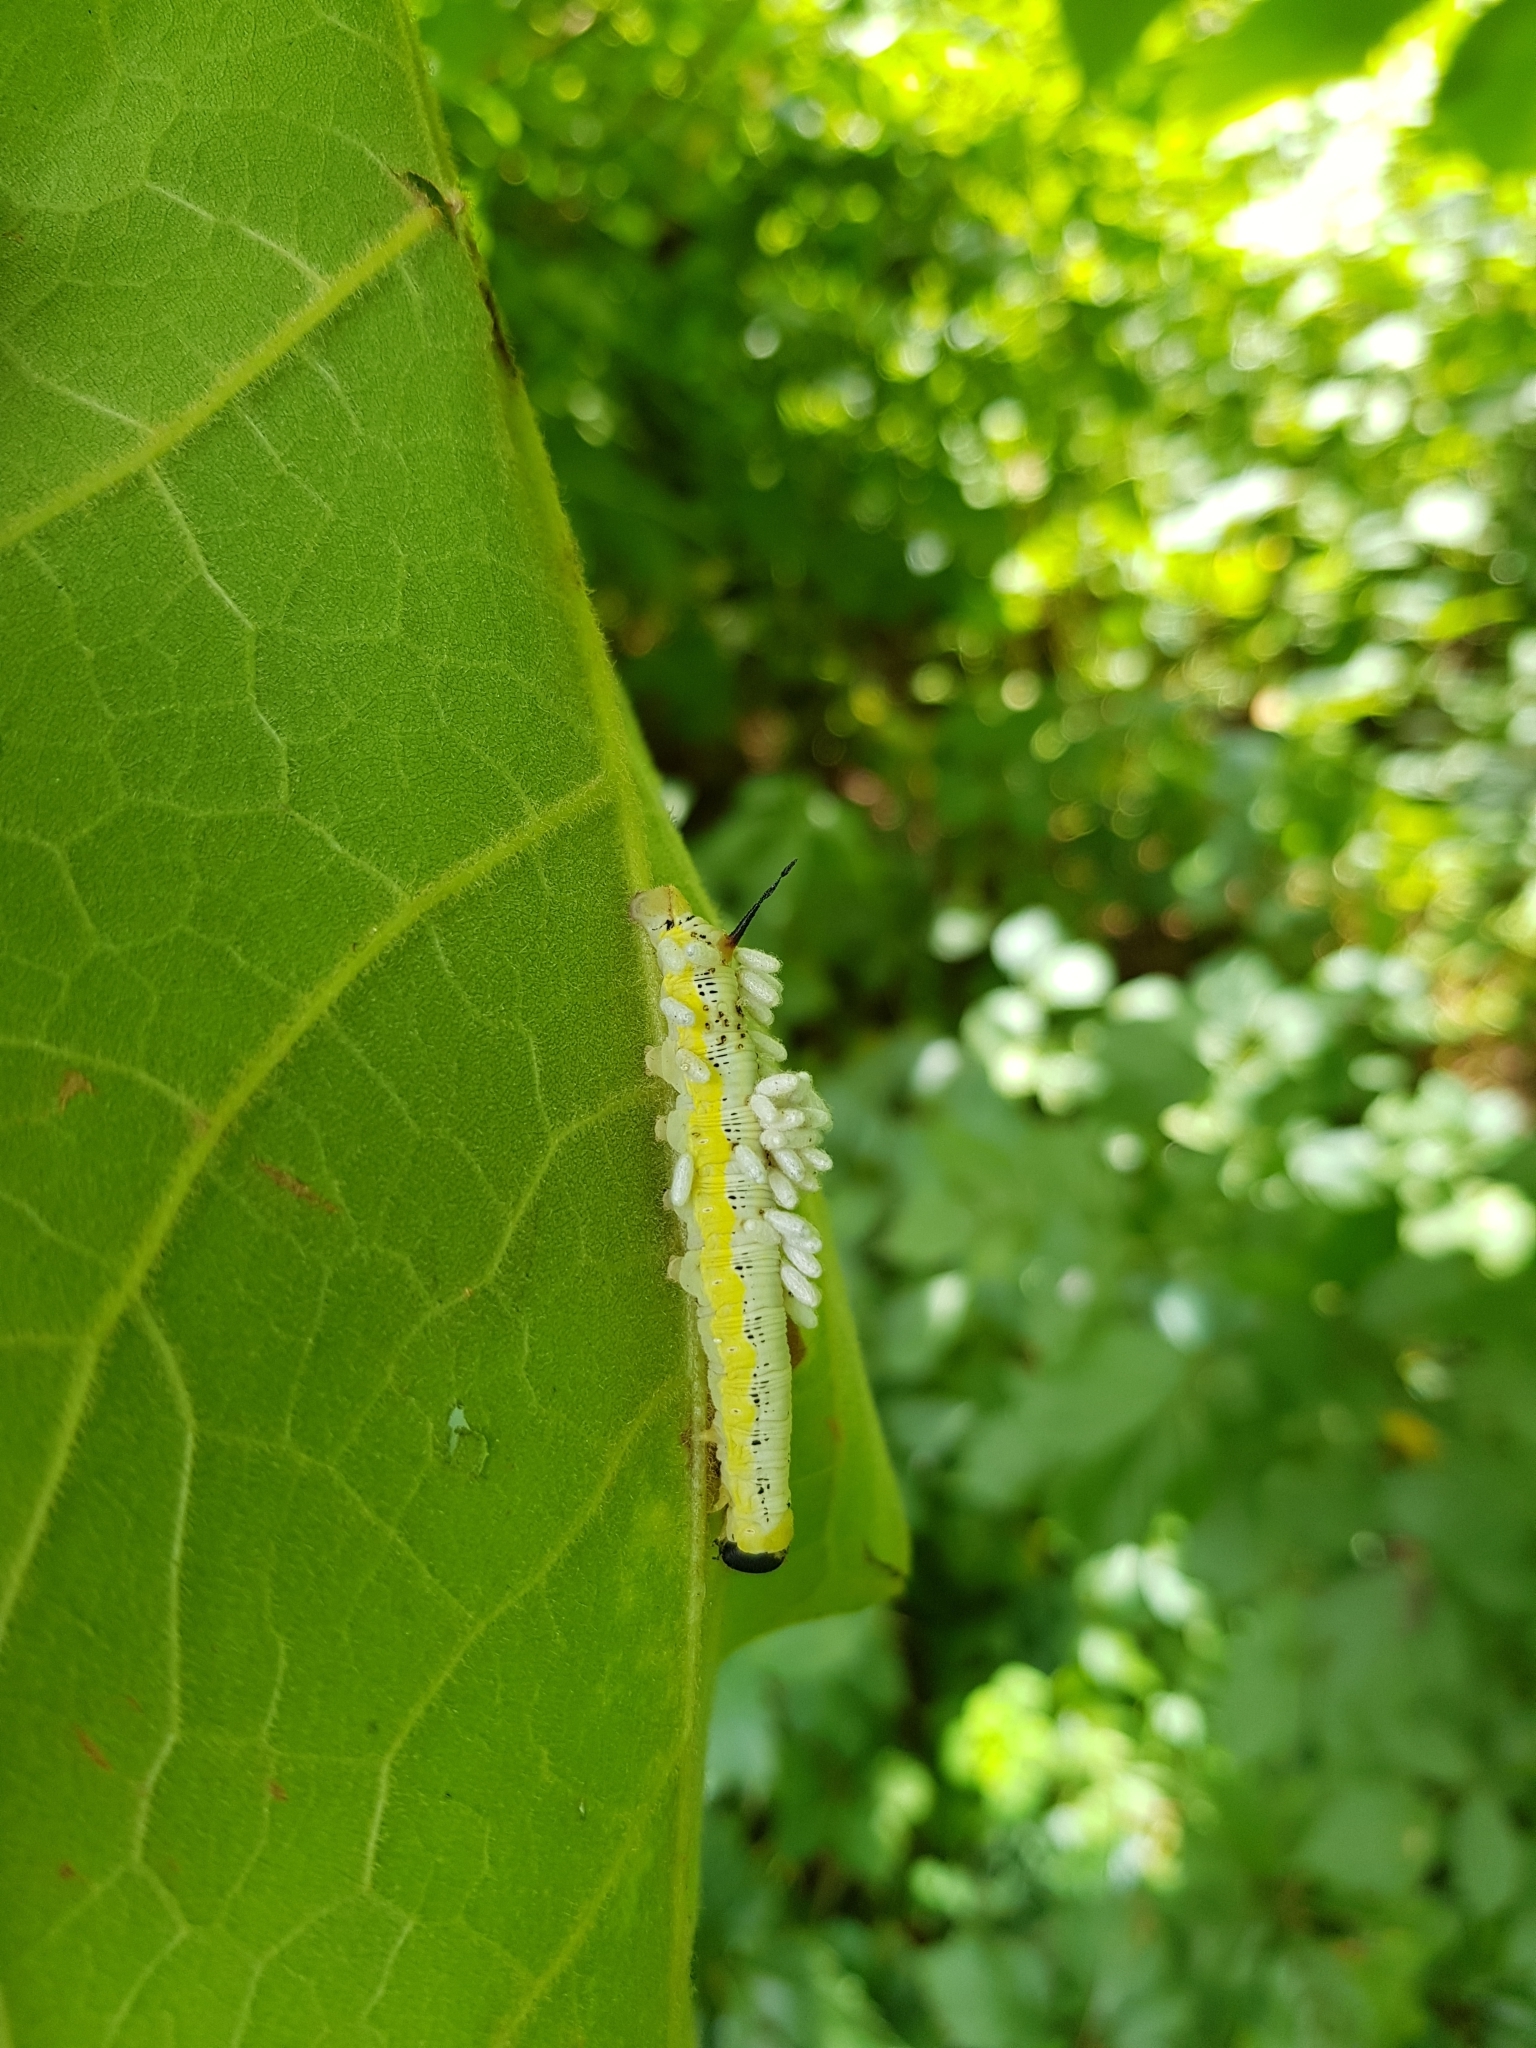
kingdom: Animalia
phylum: Arthropoda
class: Insecta
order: Lepidoptera
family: Sphingidae
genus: Ceratomia
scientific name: Ceratomia catalpae
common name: Catalpa hornworm
